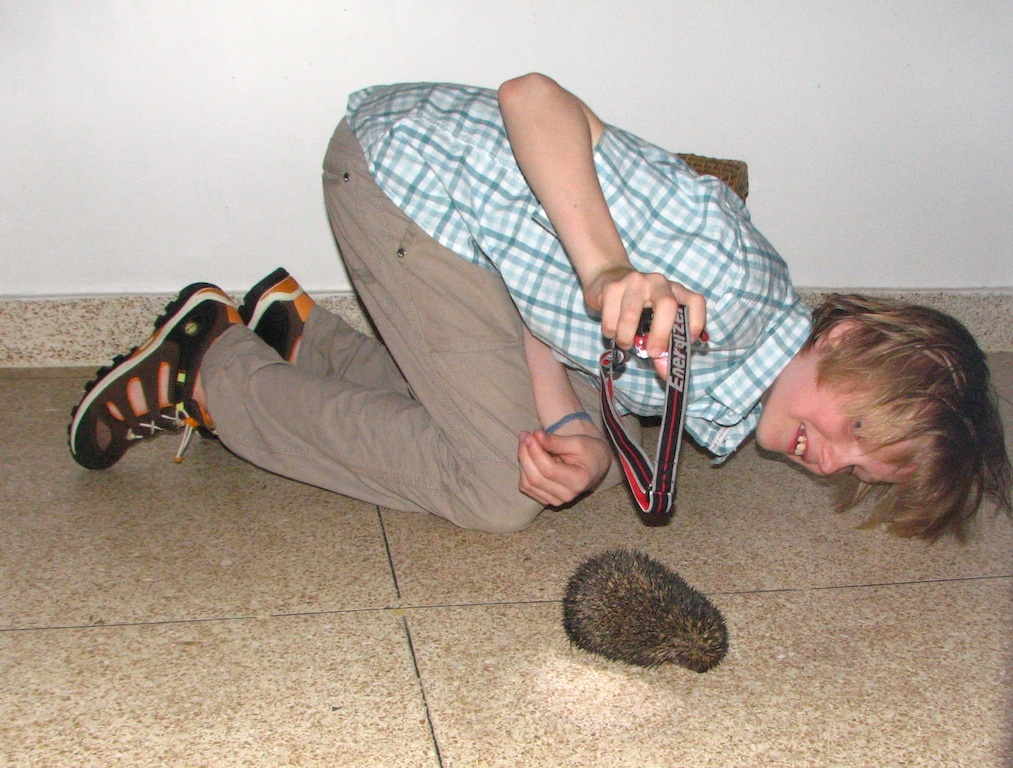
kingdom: Animalia
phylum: Chordata
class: Mammalia
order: Erinaceomorpha
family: Erinaceidae
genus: Hemiechinus
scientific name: Hemiechinus collaris
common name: Indian long-eared hedgehog
